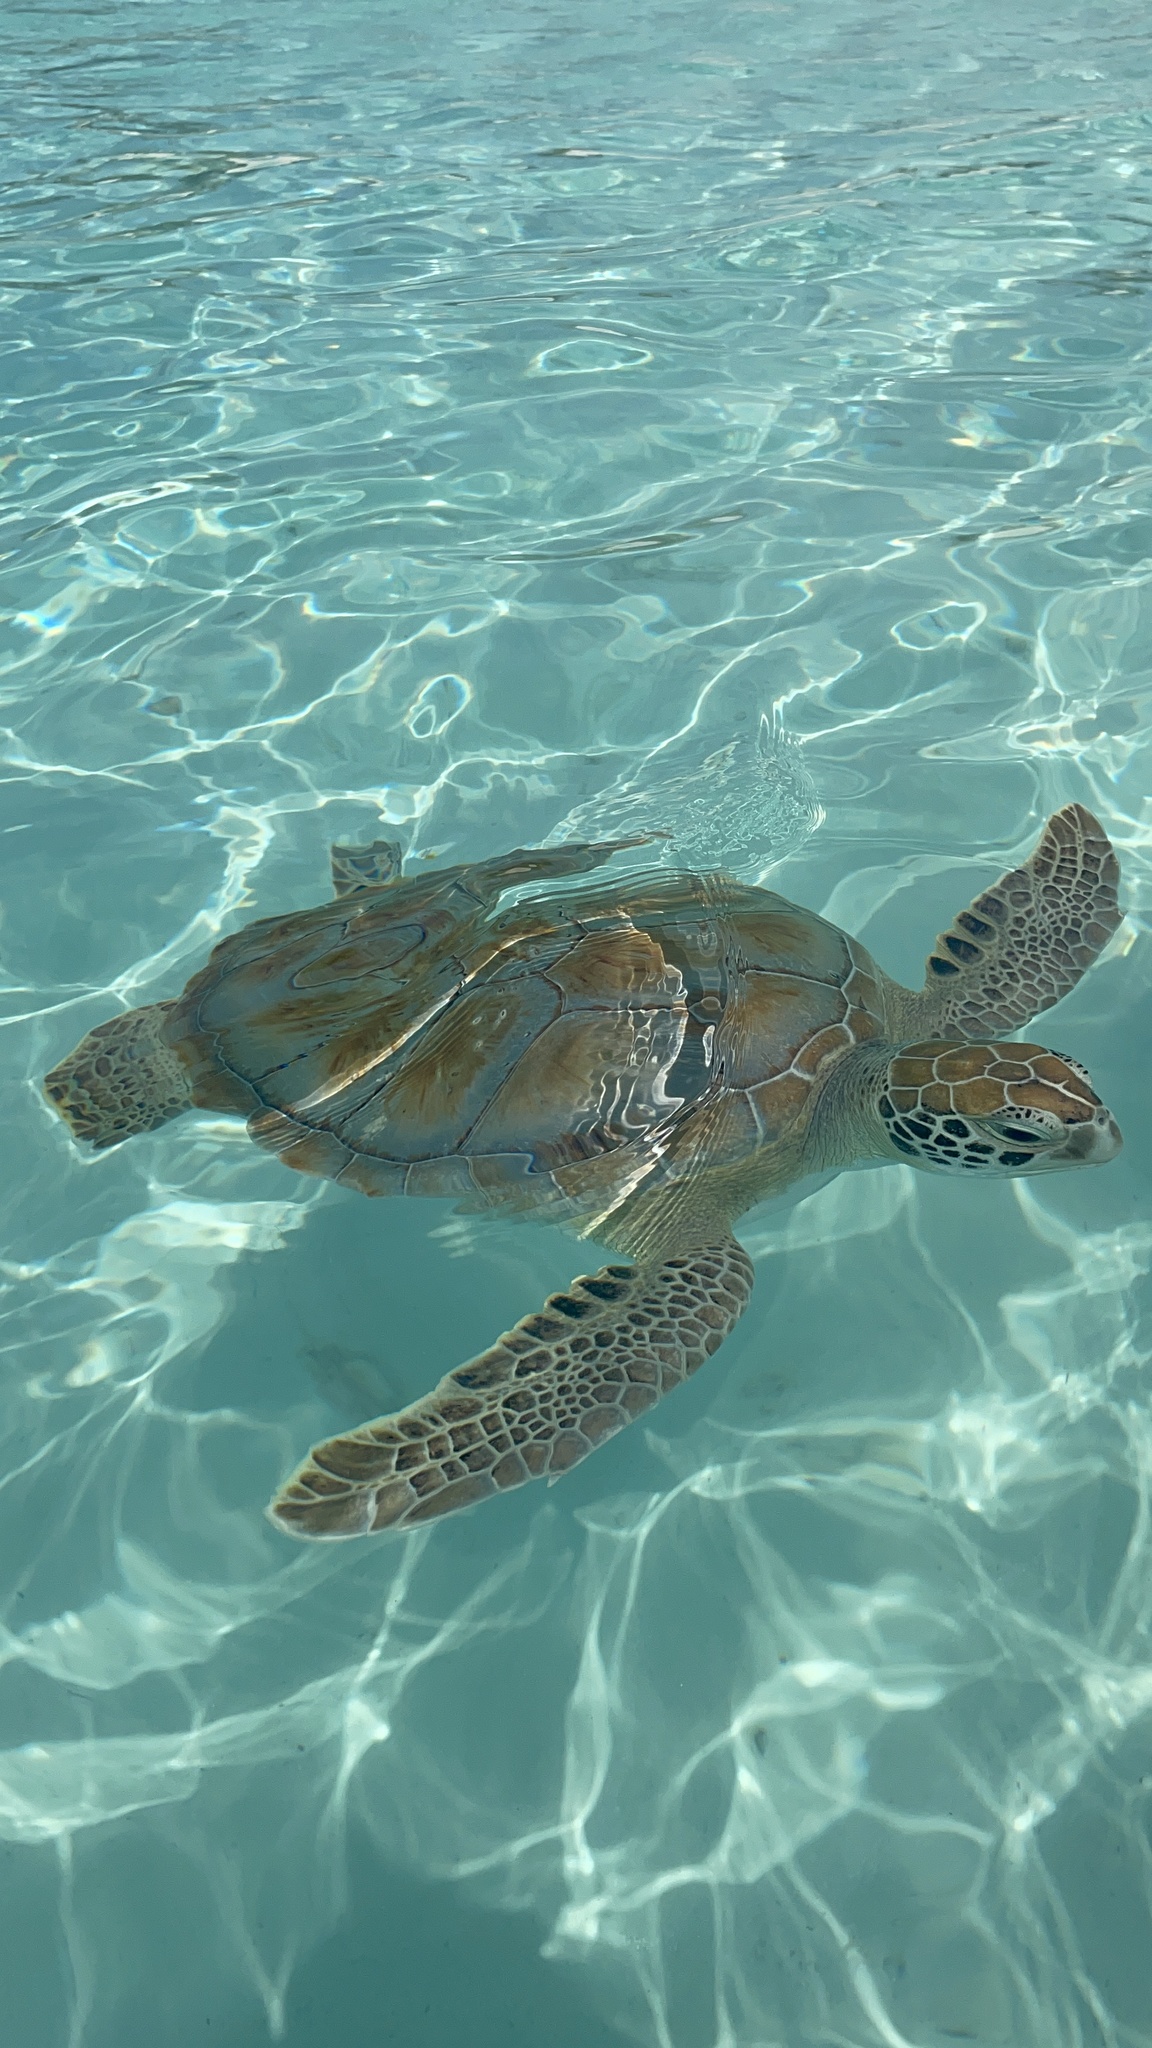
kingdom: Animalia
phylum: Chordata
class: Testudines
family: Cheloniidae
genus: Chelonia
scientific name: Chelonia mydas
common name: Green turtle
